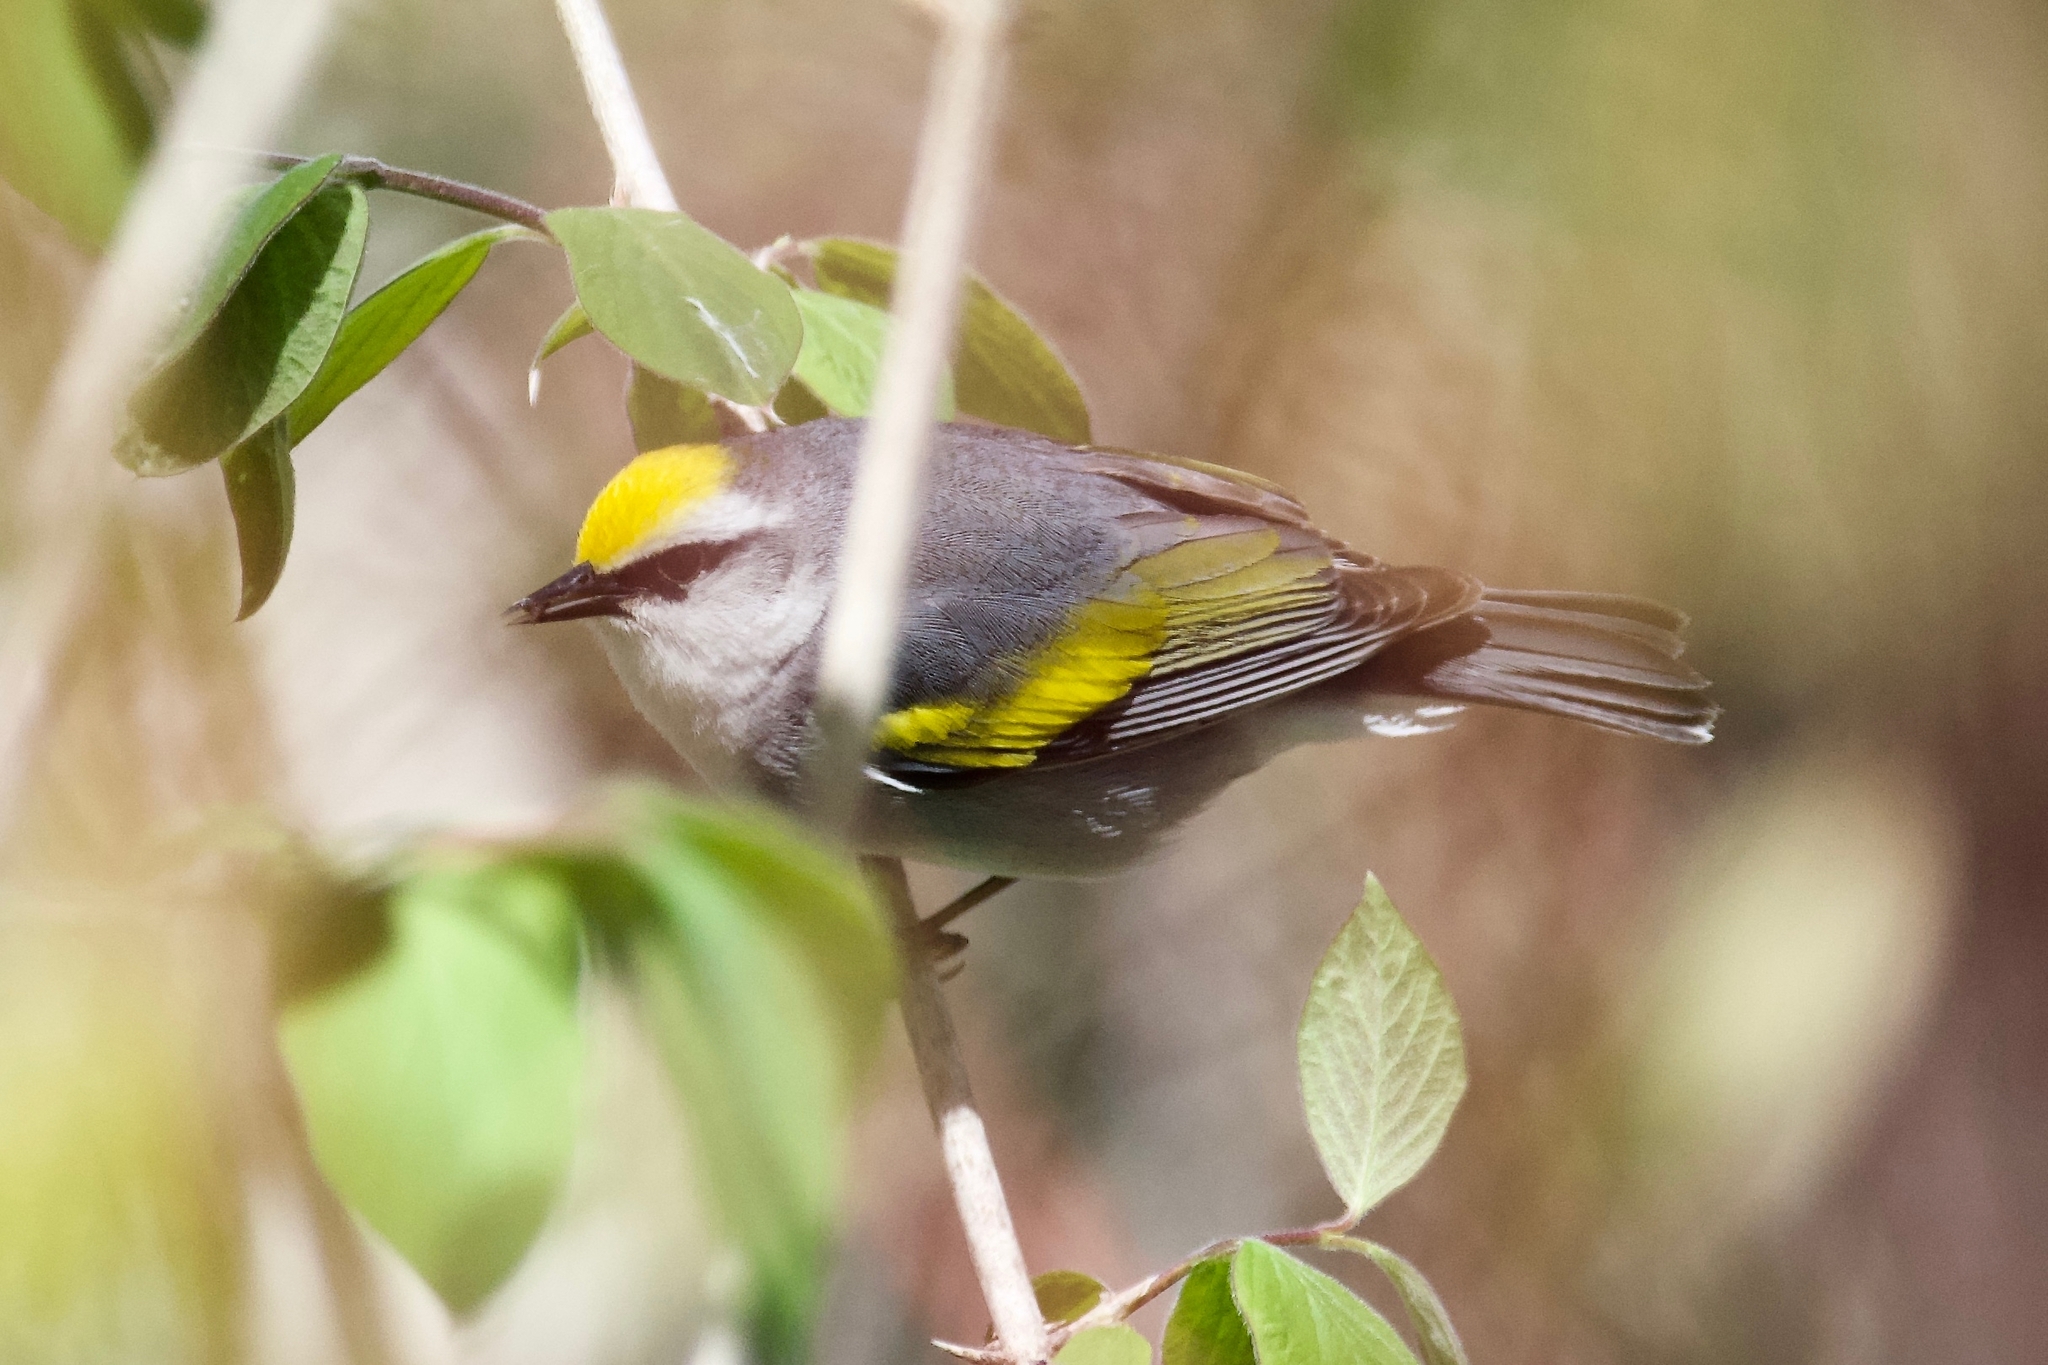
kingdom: Animalia
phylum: Chordata
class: Aves
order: Passeriformes
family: Parulidae
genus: Vermivora
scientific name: Vermivora
